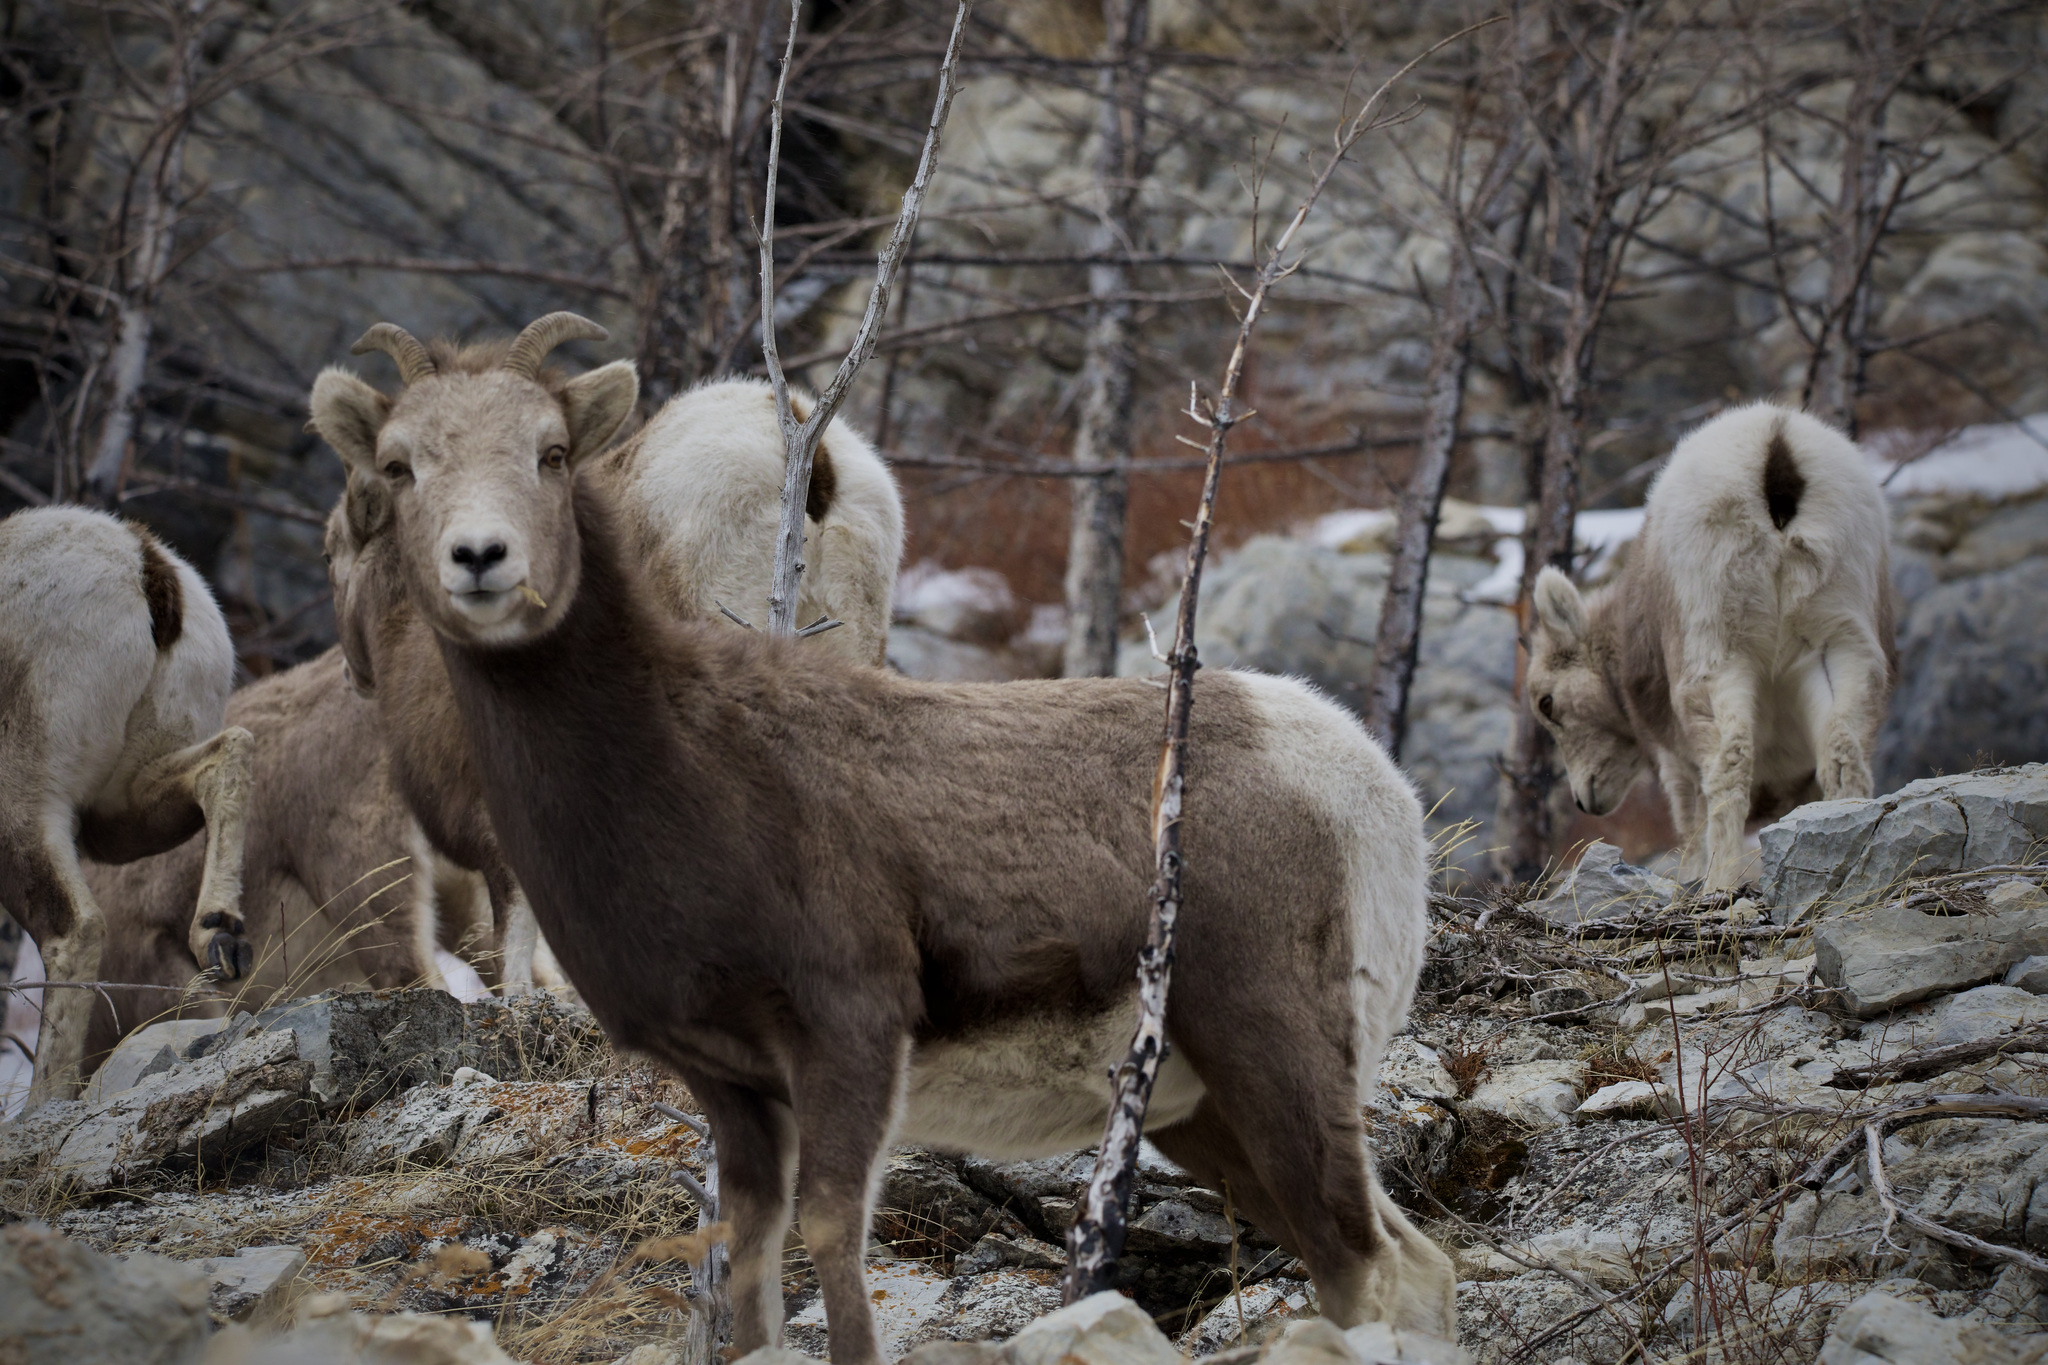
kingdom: Animalia
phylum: Chordata
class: Mammalia
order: Artiodactyla
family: Bovidae
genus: Ovis
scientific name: Ovis canadensis
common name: Bighorn sheep
